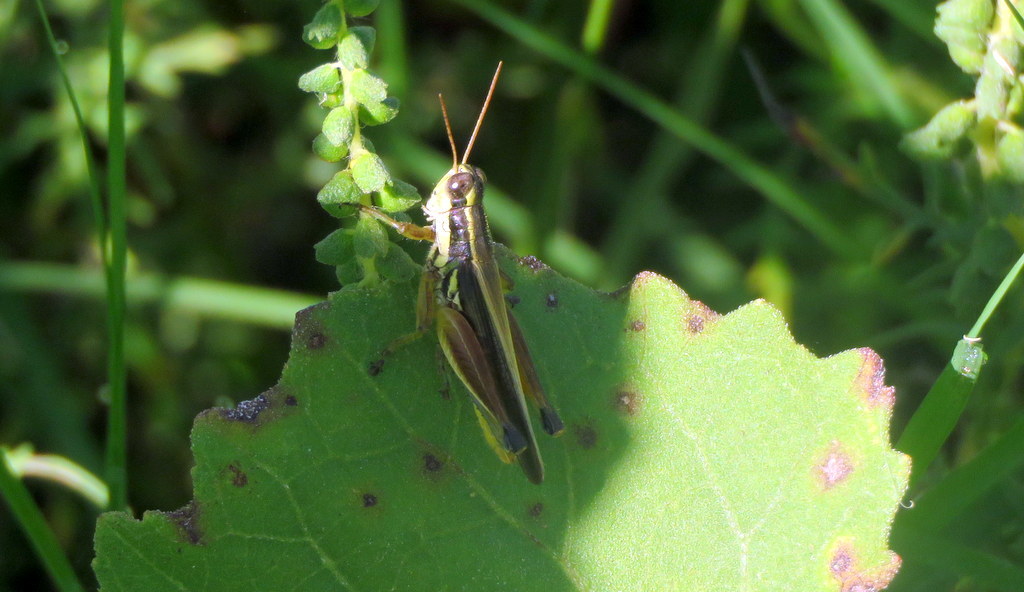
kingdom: Animalia
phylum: Arthropoda
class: Insecta
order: Orthoptera
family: Acrididae
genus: Dichroplus
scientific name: Dichroplus elongatus
